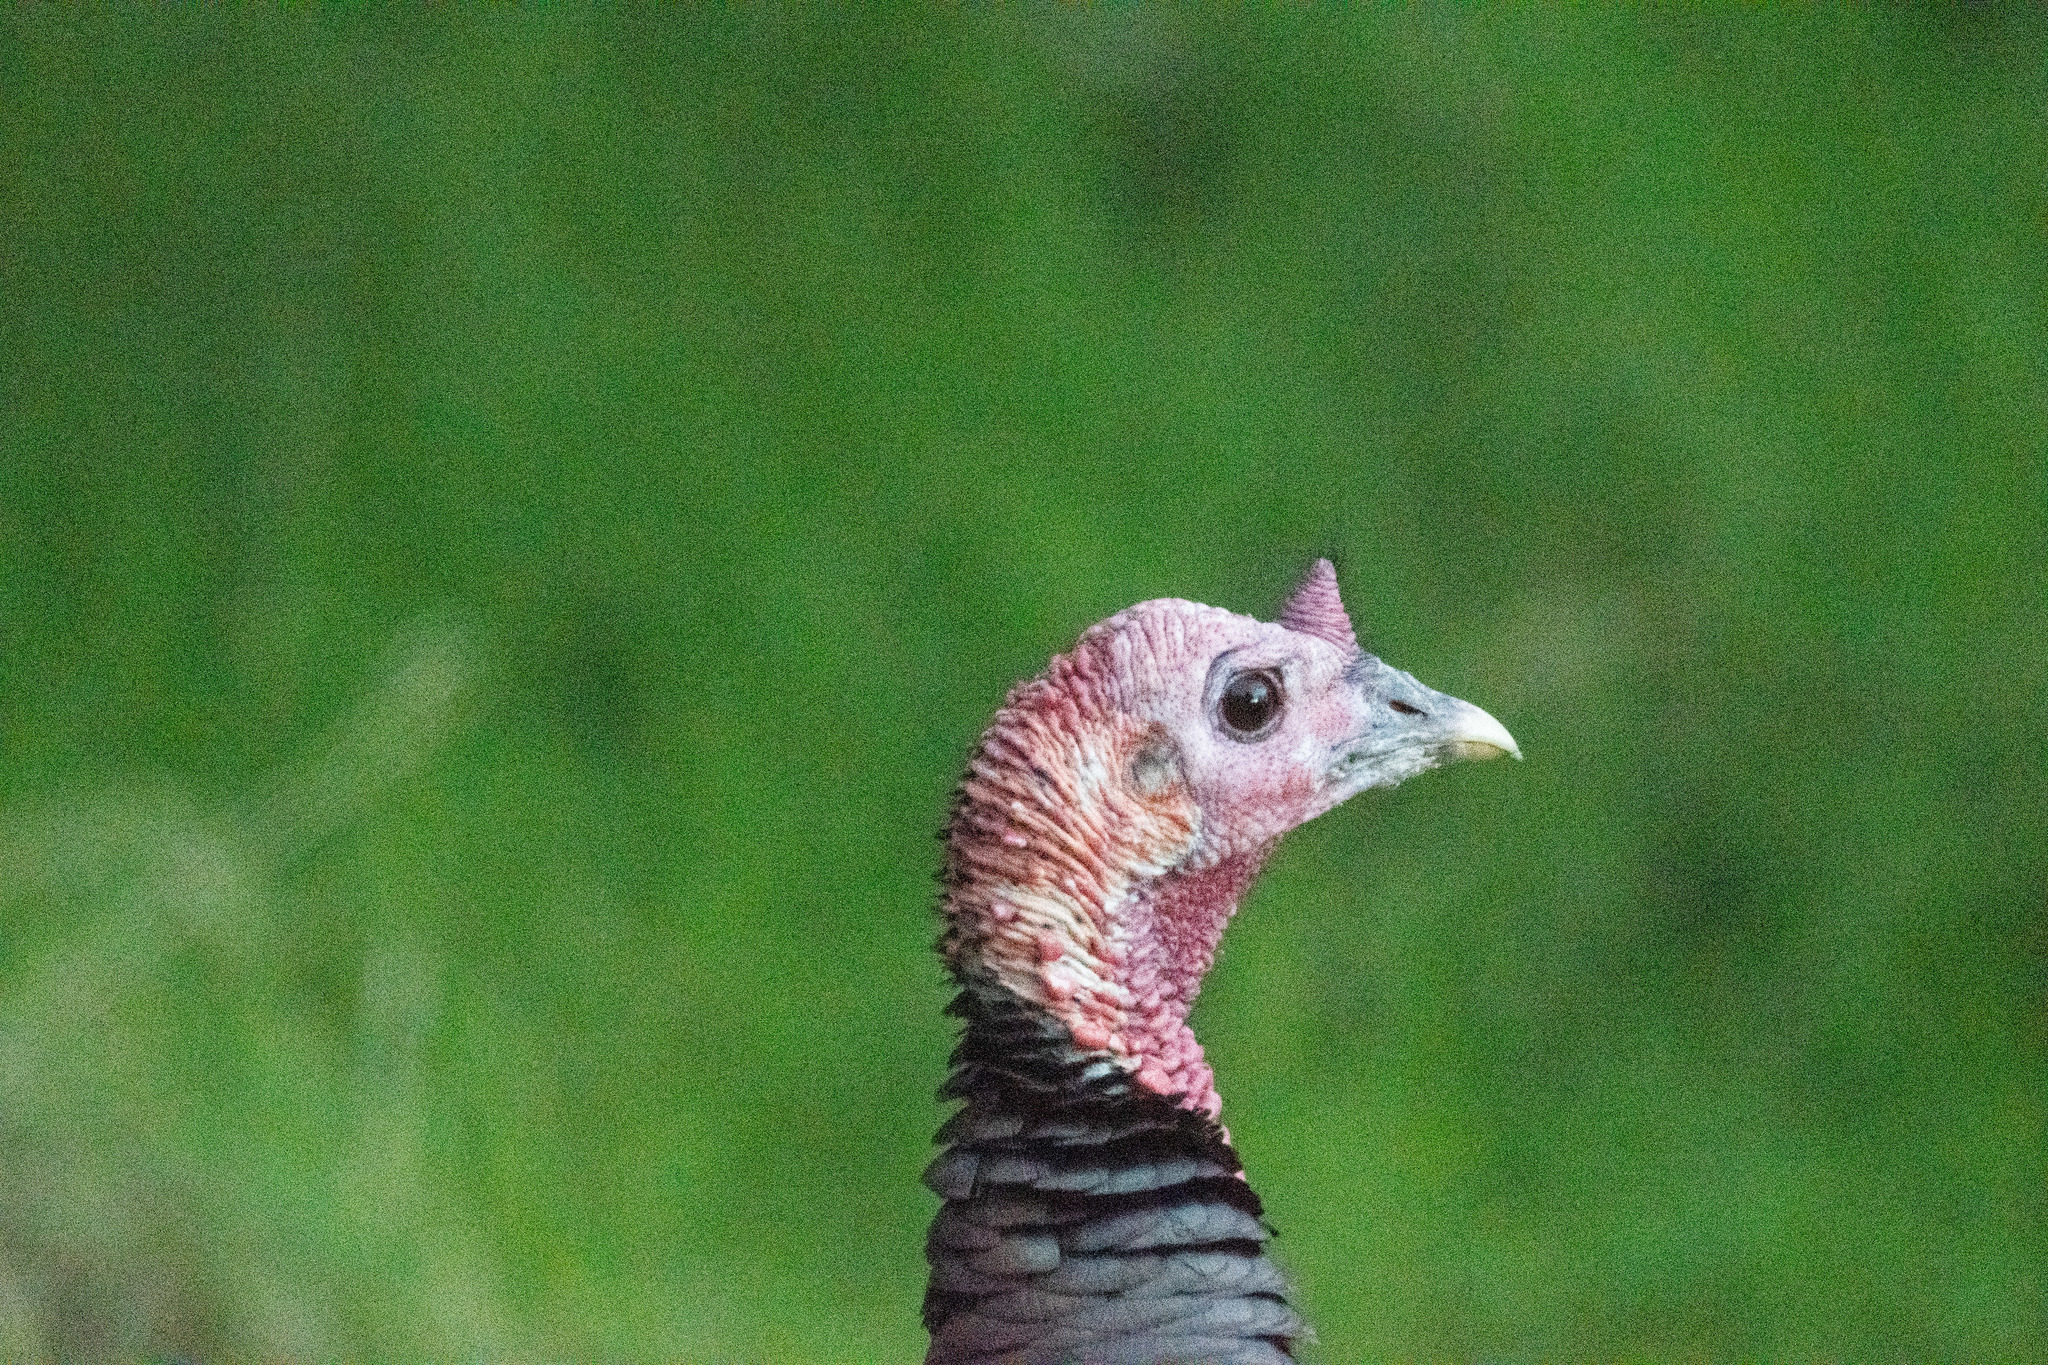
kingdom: Animalia
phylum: Chordata
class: Aves
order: Galliformes
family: Phasianidae
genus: Meleagris
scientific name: Meleagris gallopavo
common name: Wild turkey
